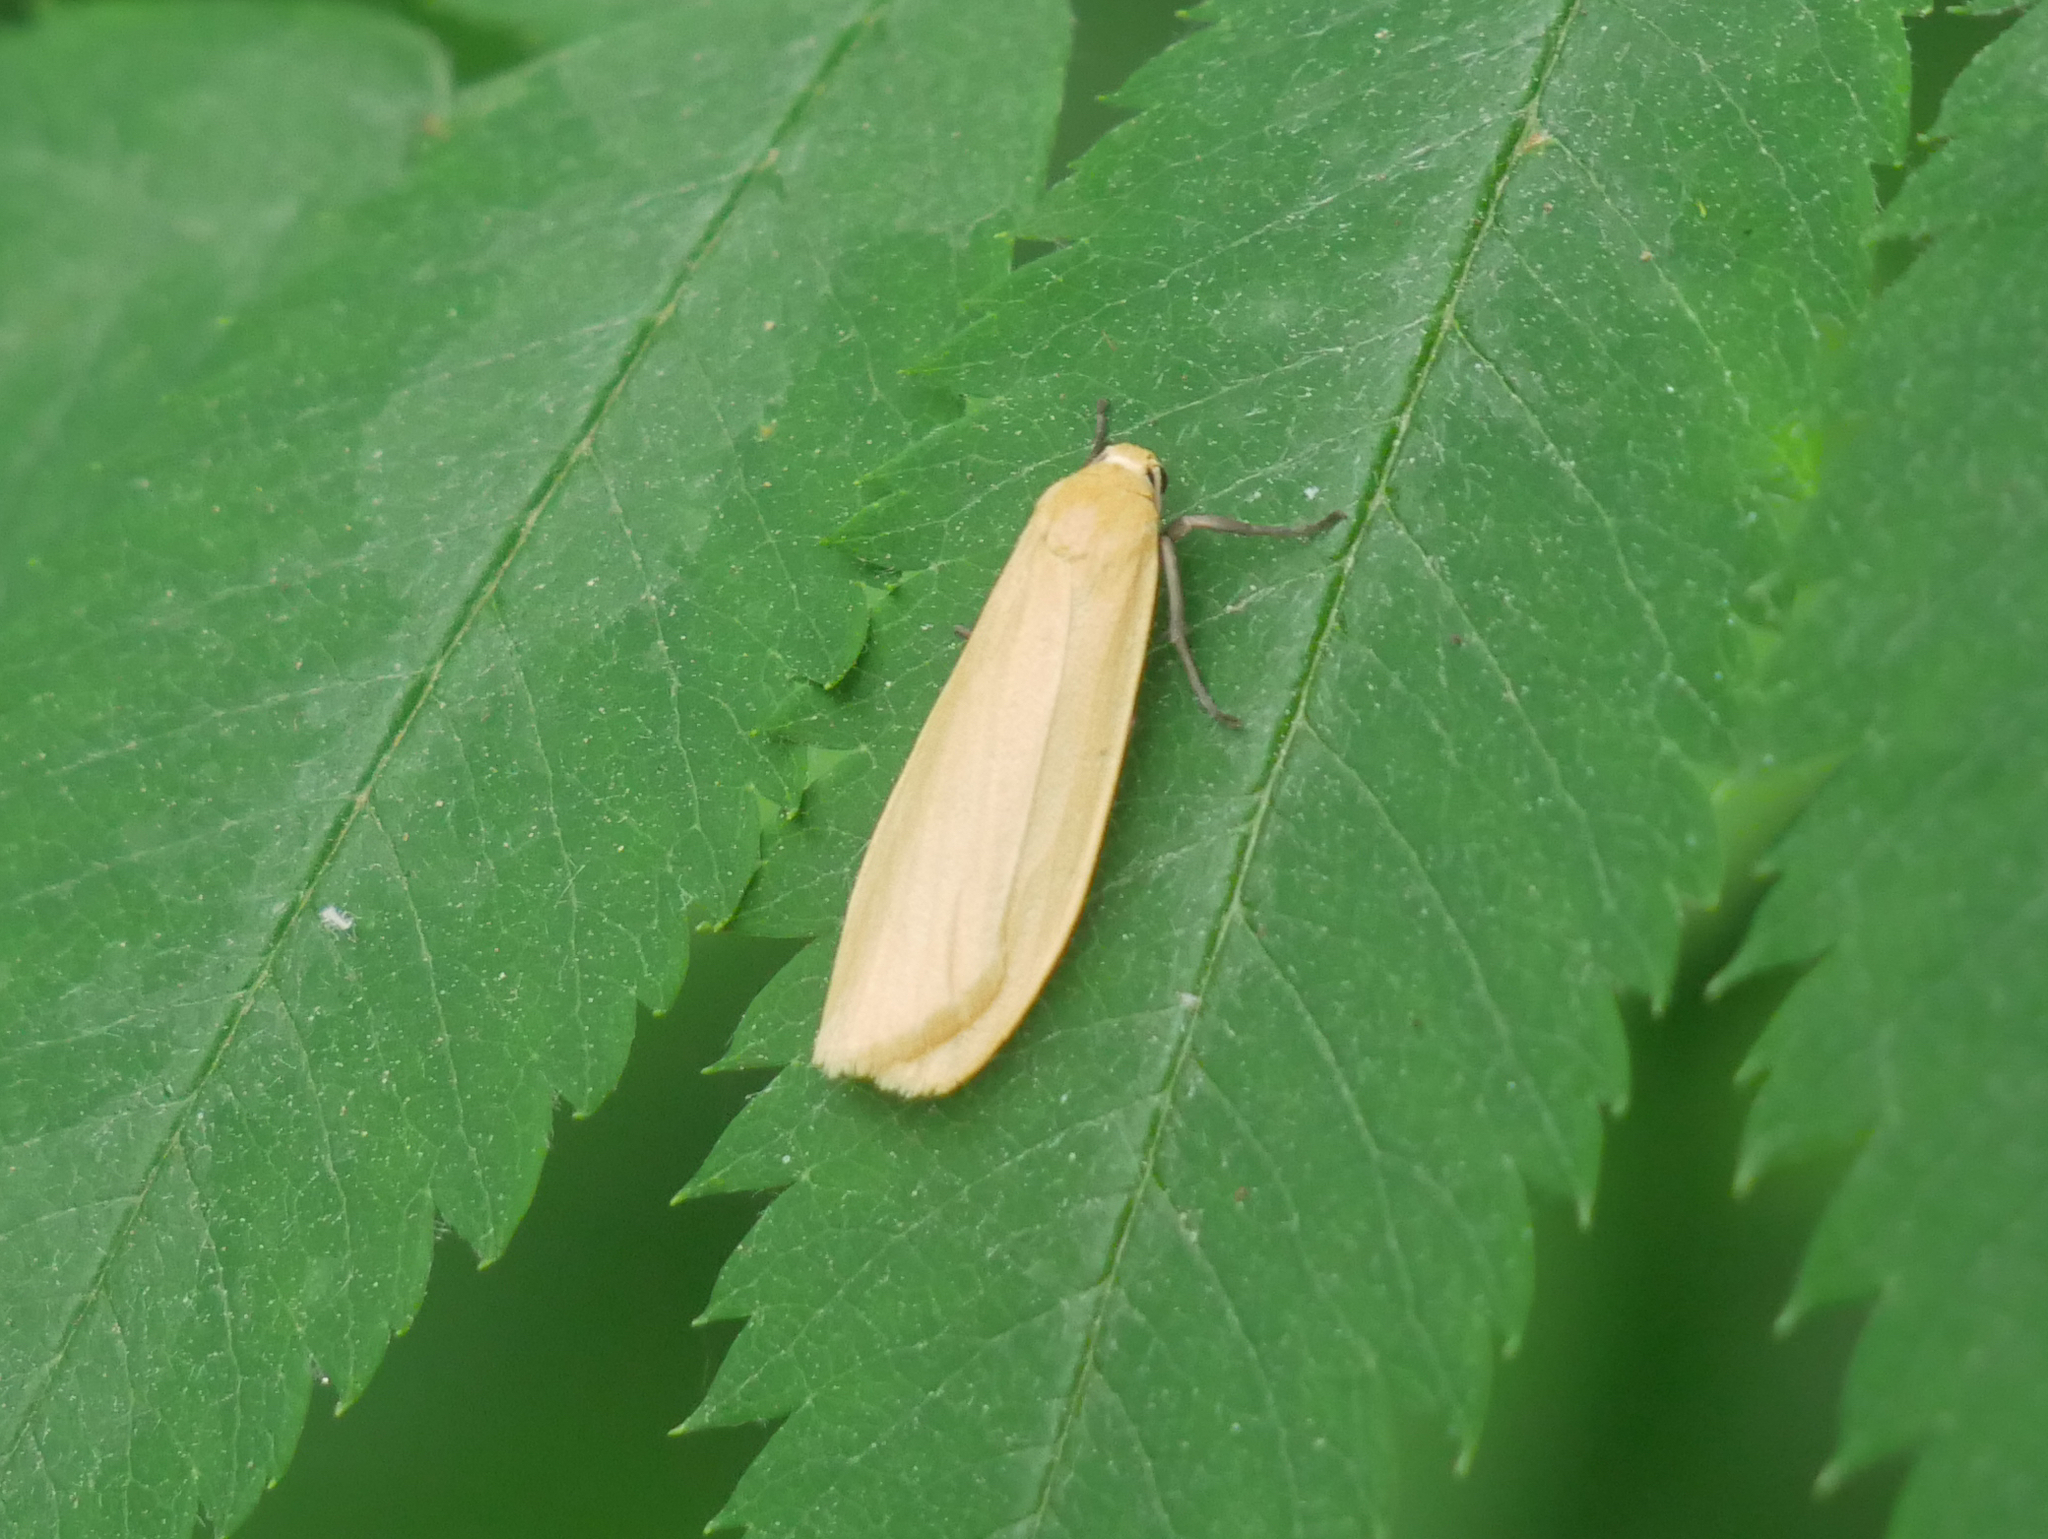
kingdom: Animalia
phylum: Arthropoda
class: Insecta
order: Lepidoptera
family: Erebidae
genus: Wittia
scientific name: Wittia sororcula
